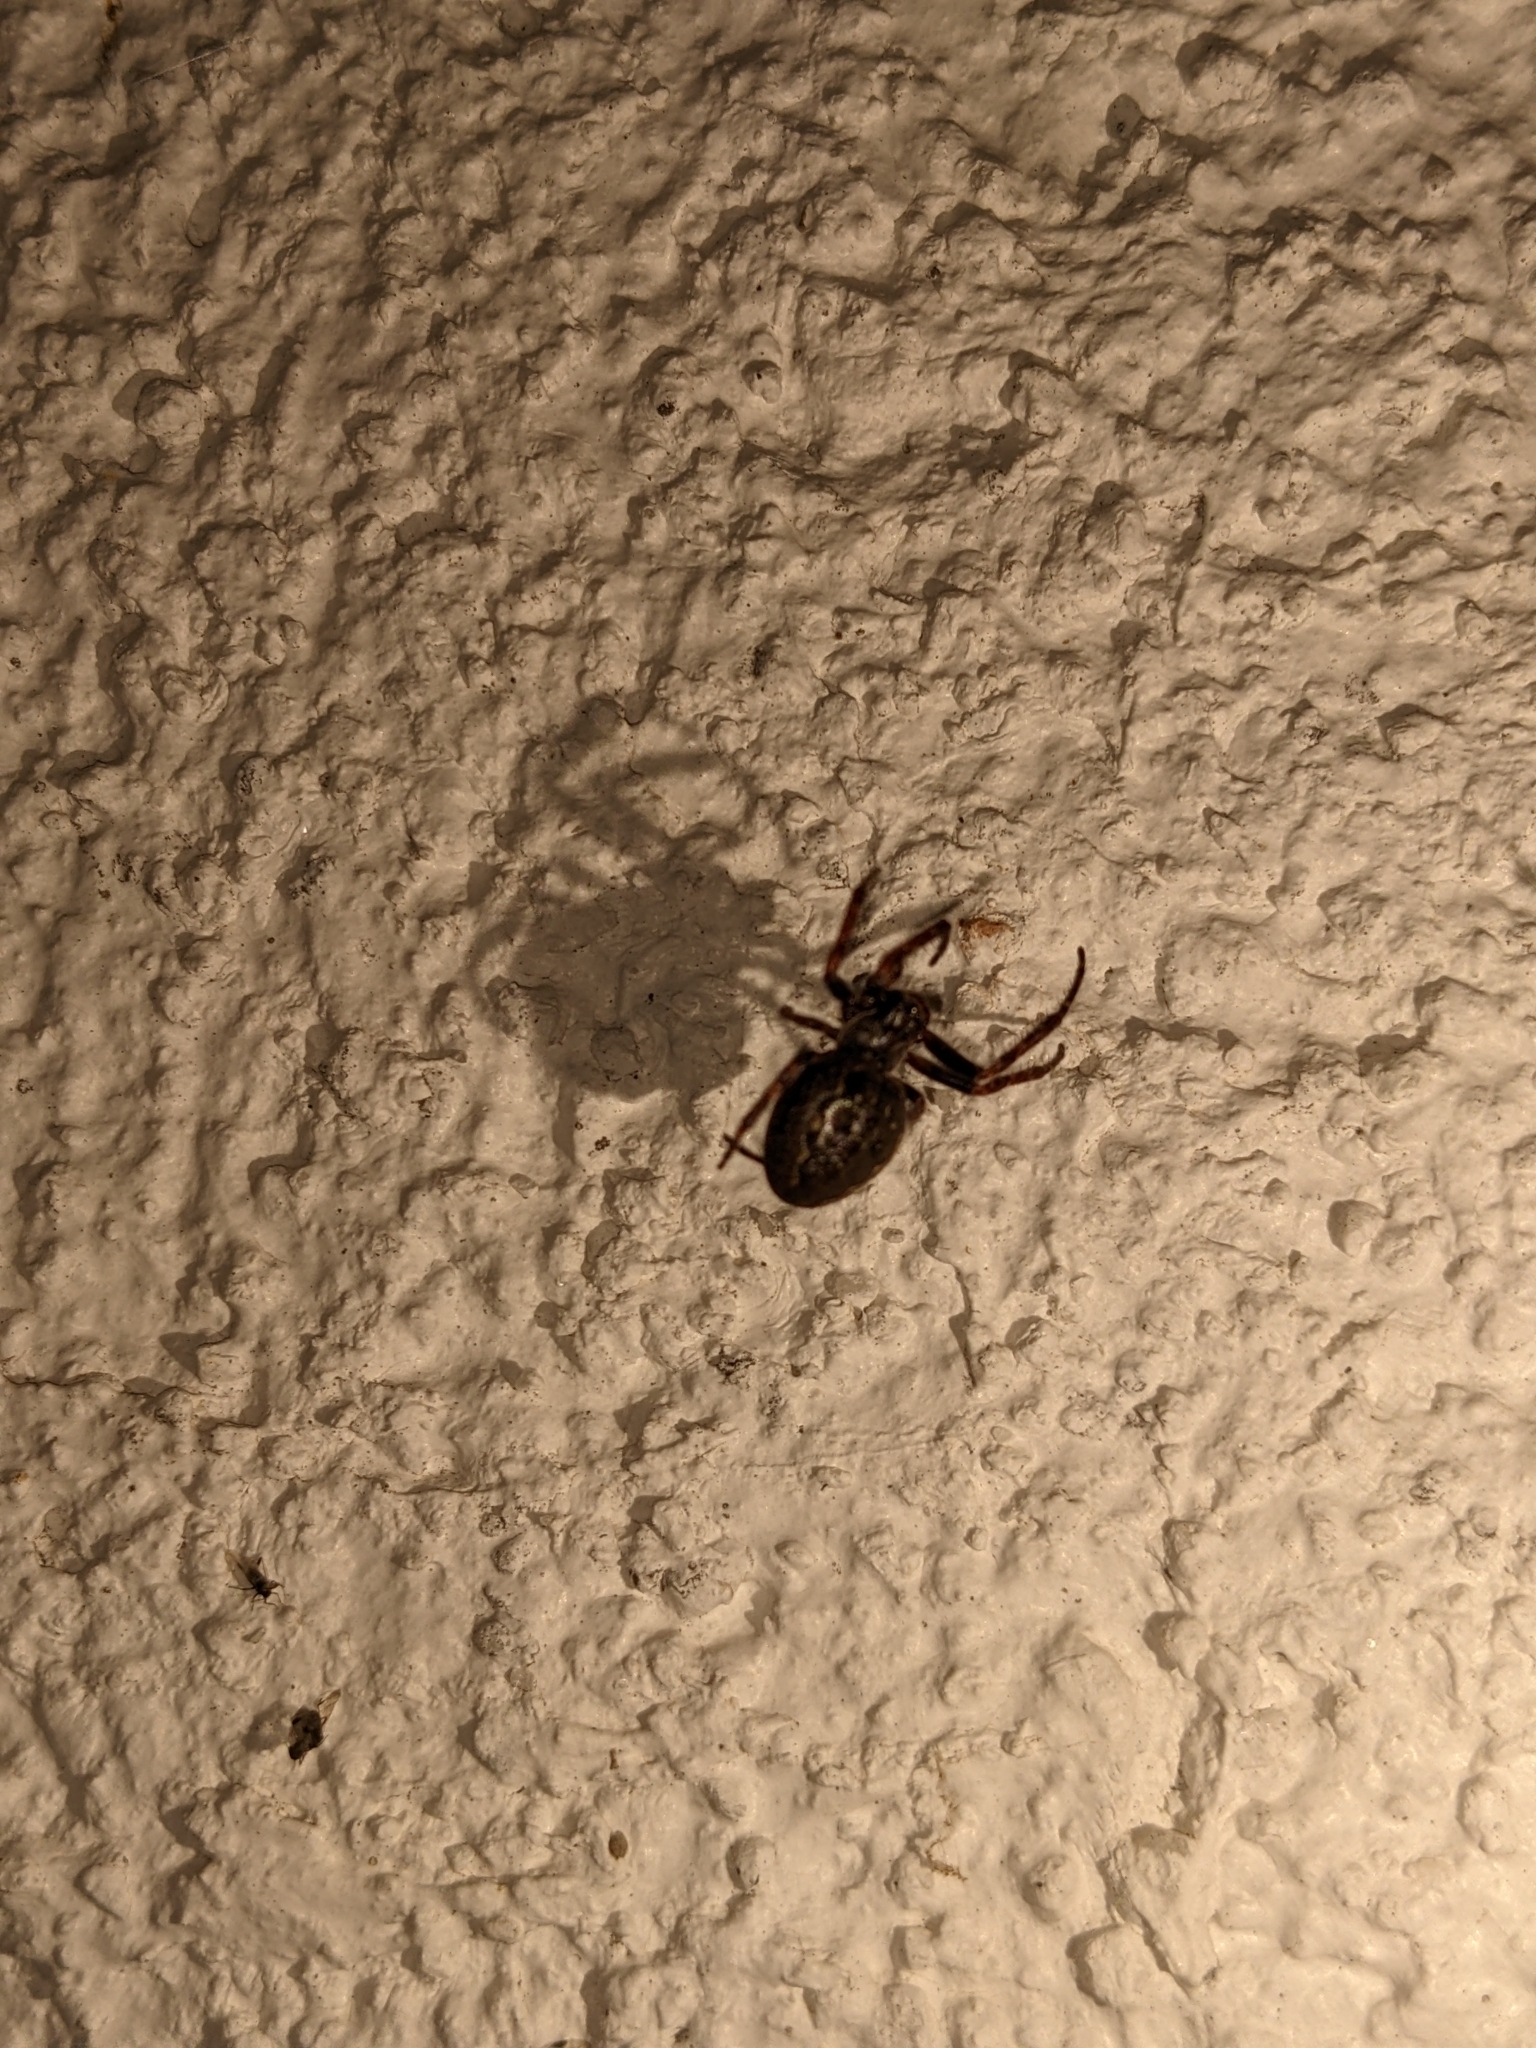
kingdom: Animalia
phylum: Arthropoda
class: Arachnida
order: Araneae
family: Araneidae
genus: Nuctenea
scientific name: Nuctenea umbratica
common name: Toad spider
